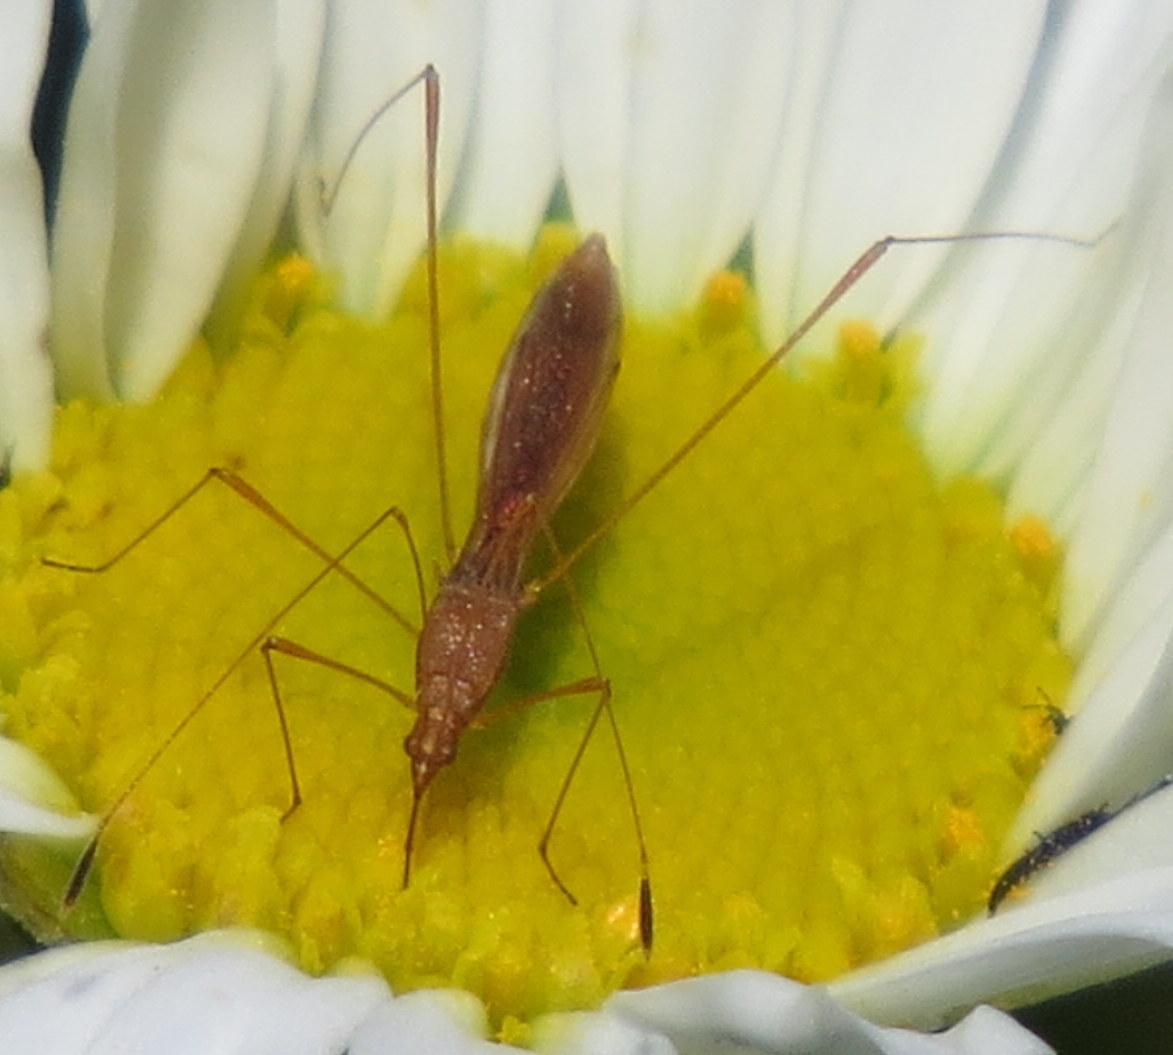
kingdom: Animalia
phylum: Arthropoda
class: Insecta
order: Hemiptera
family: Berytidae
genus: Jalysus
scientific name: Jalysus
